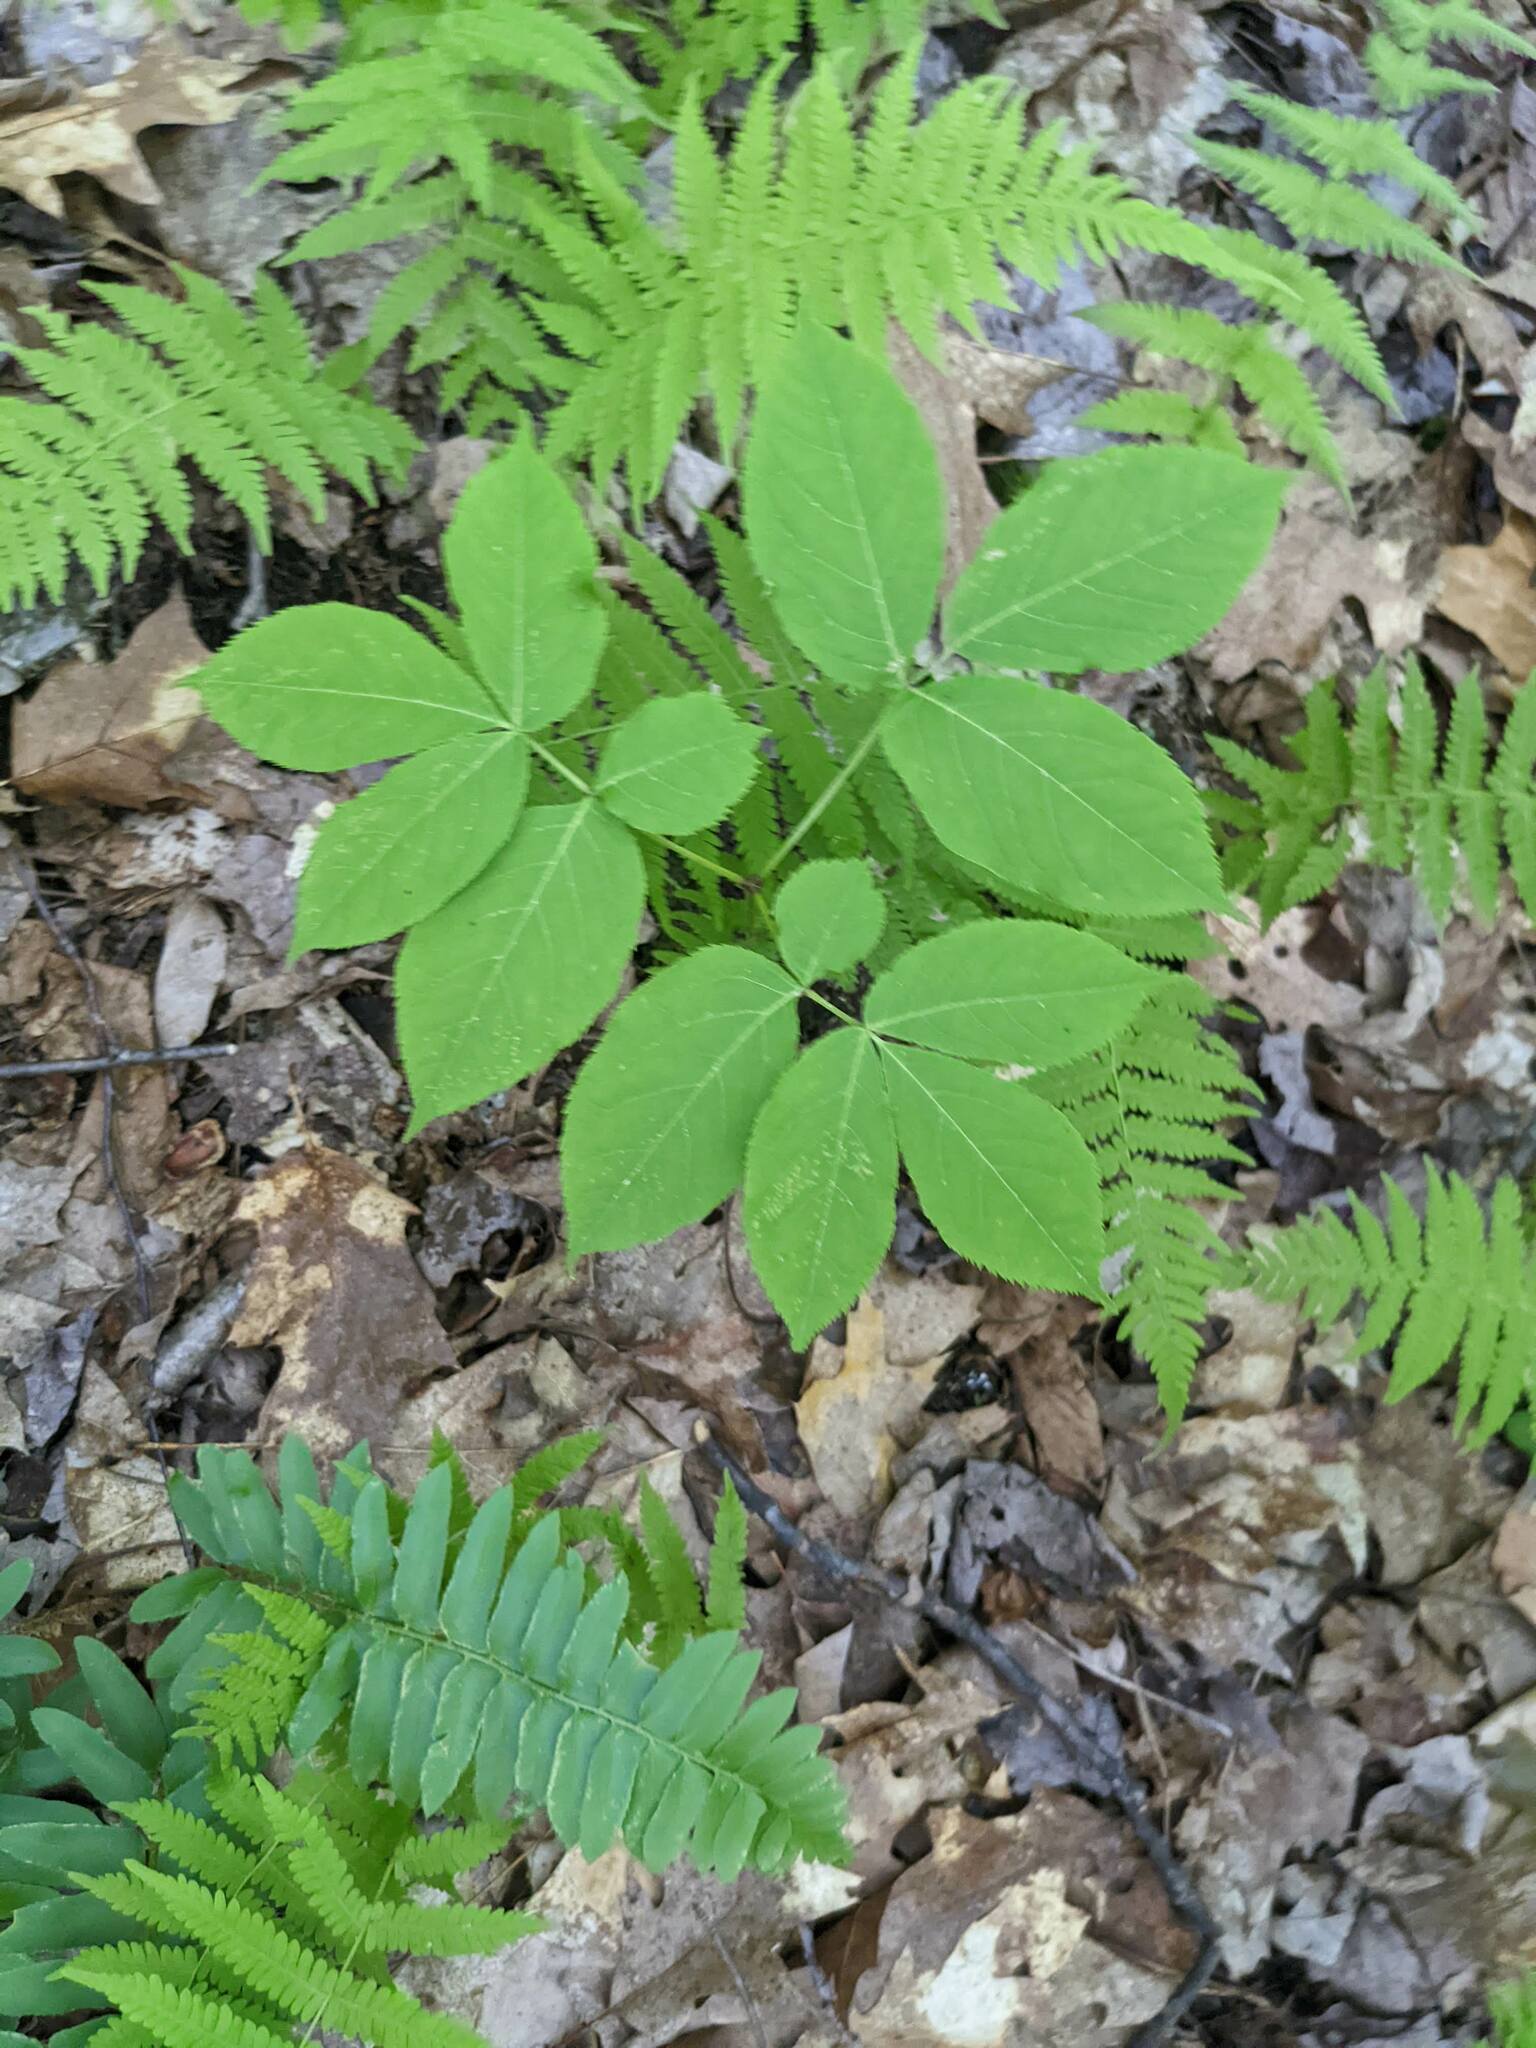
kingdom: Plantae
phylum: Tracheophyta
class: Magnoliopsida
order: Apiales
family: Araliaceae
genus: Aralia
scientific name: Aralia nudicaulis
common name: Wild sarsaparilla
